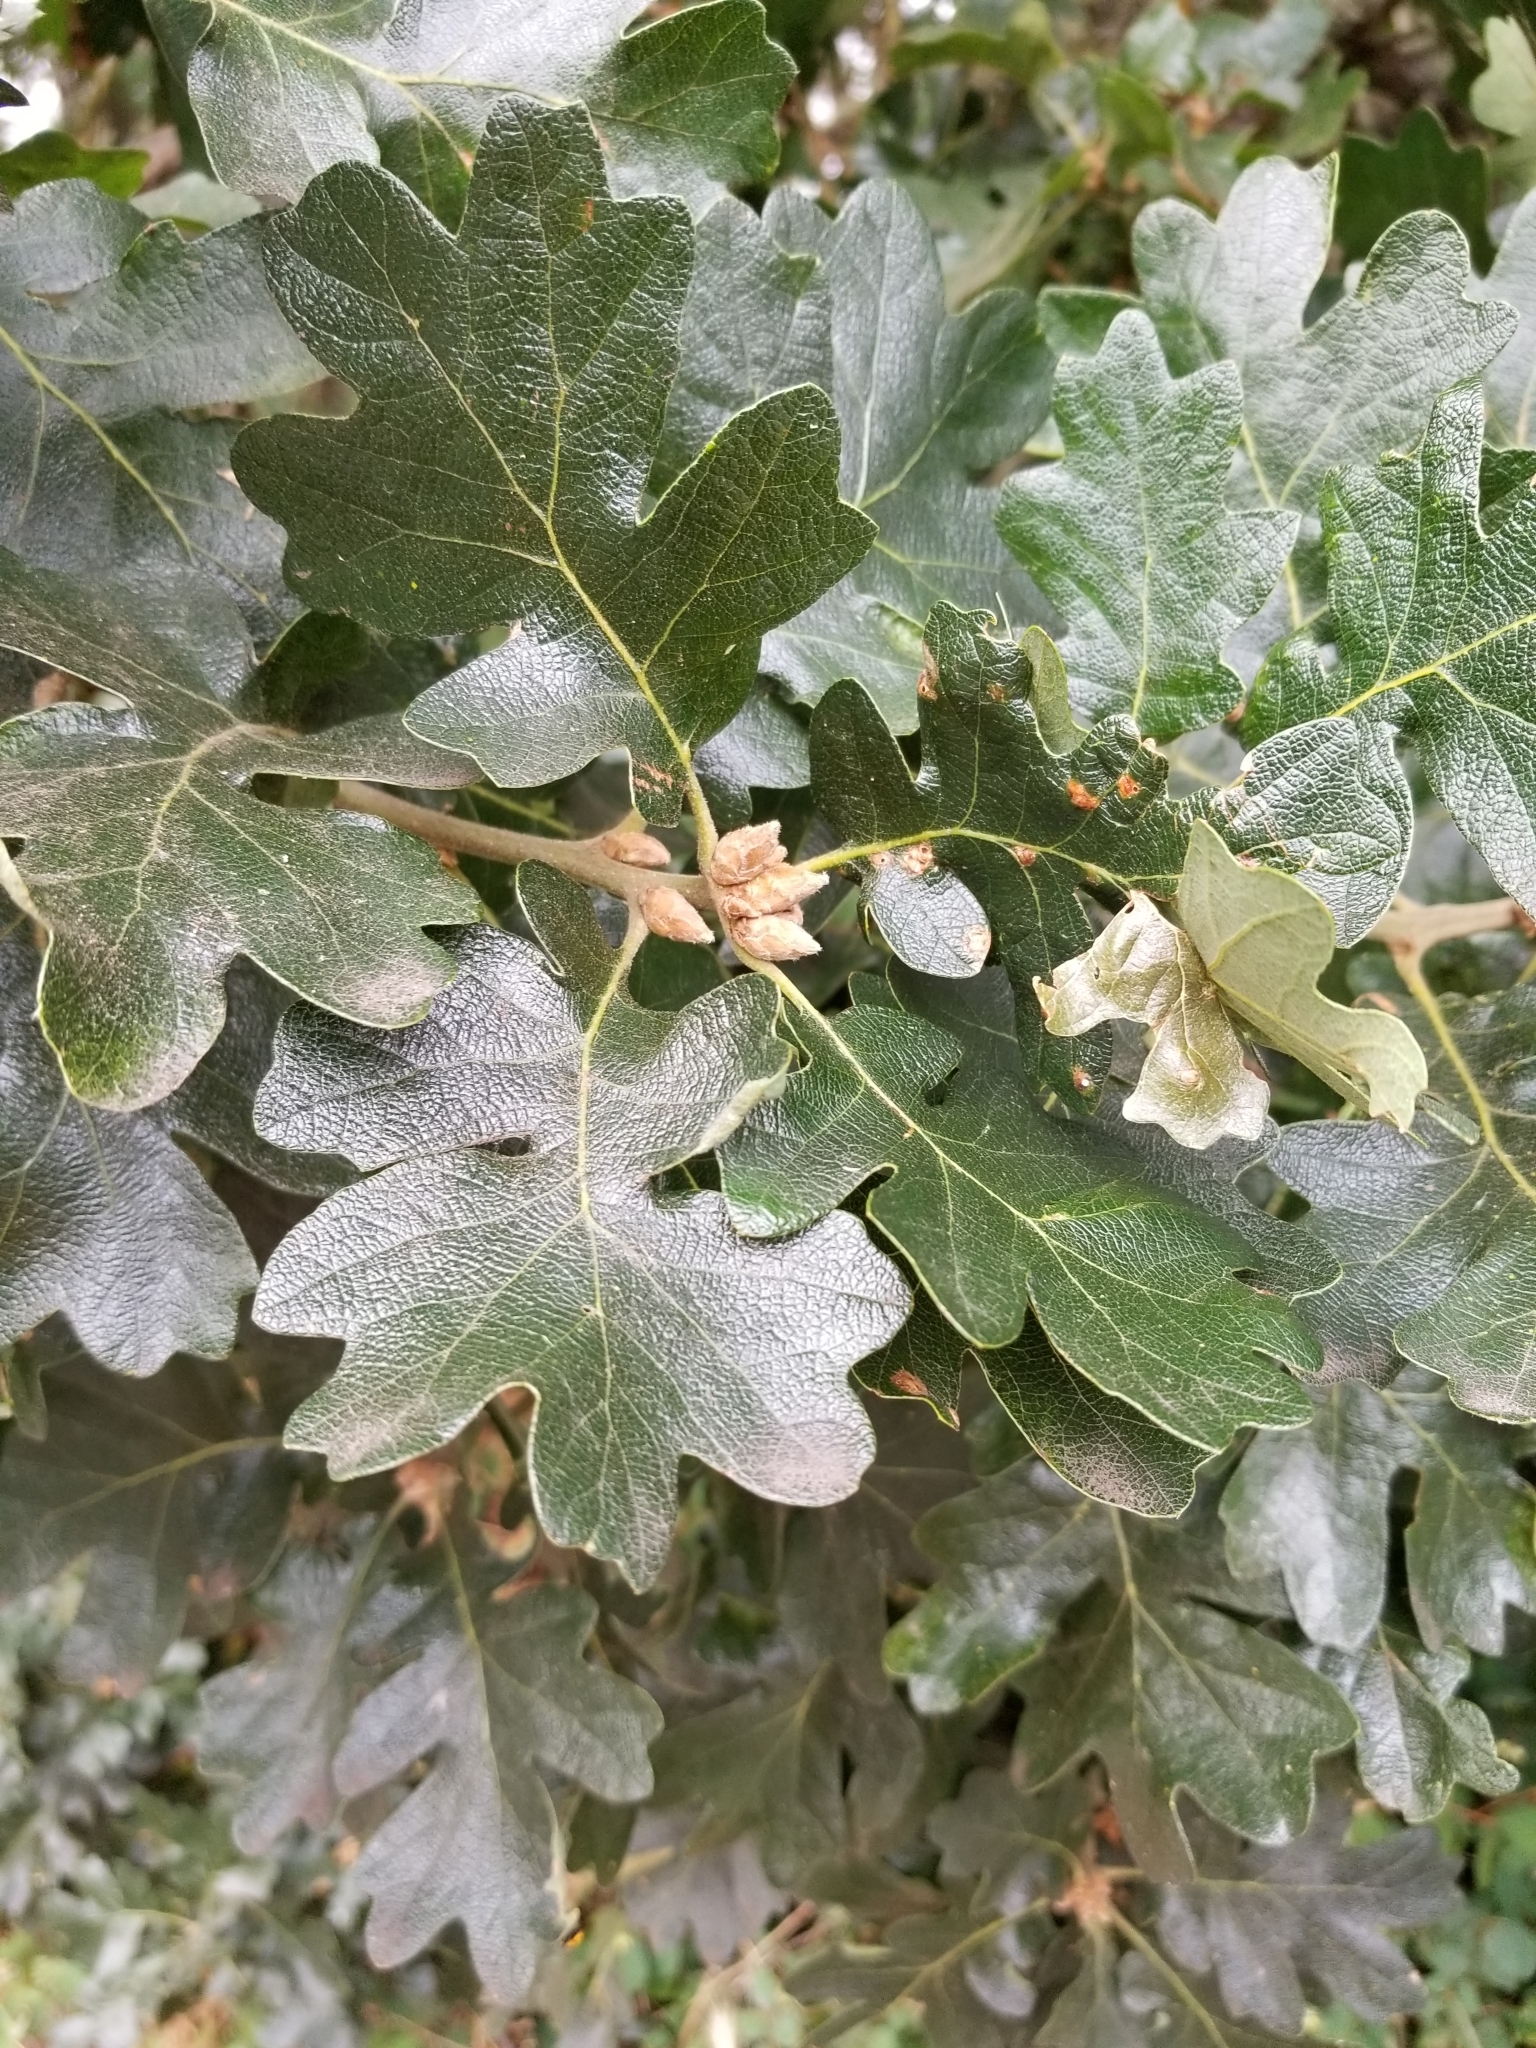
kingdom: Plantae
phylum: Tracheophyta
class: Magnoliopsida
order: Fagales
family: Fagaceae
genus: Quercus
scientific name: Quercus garryana
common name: Garry oak
